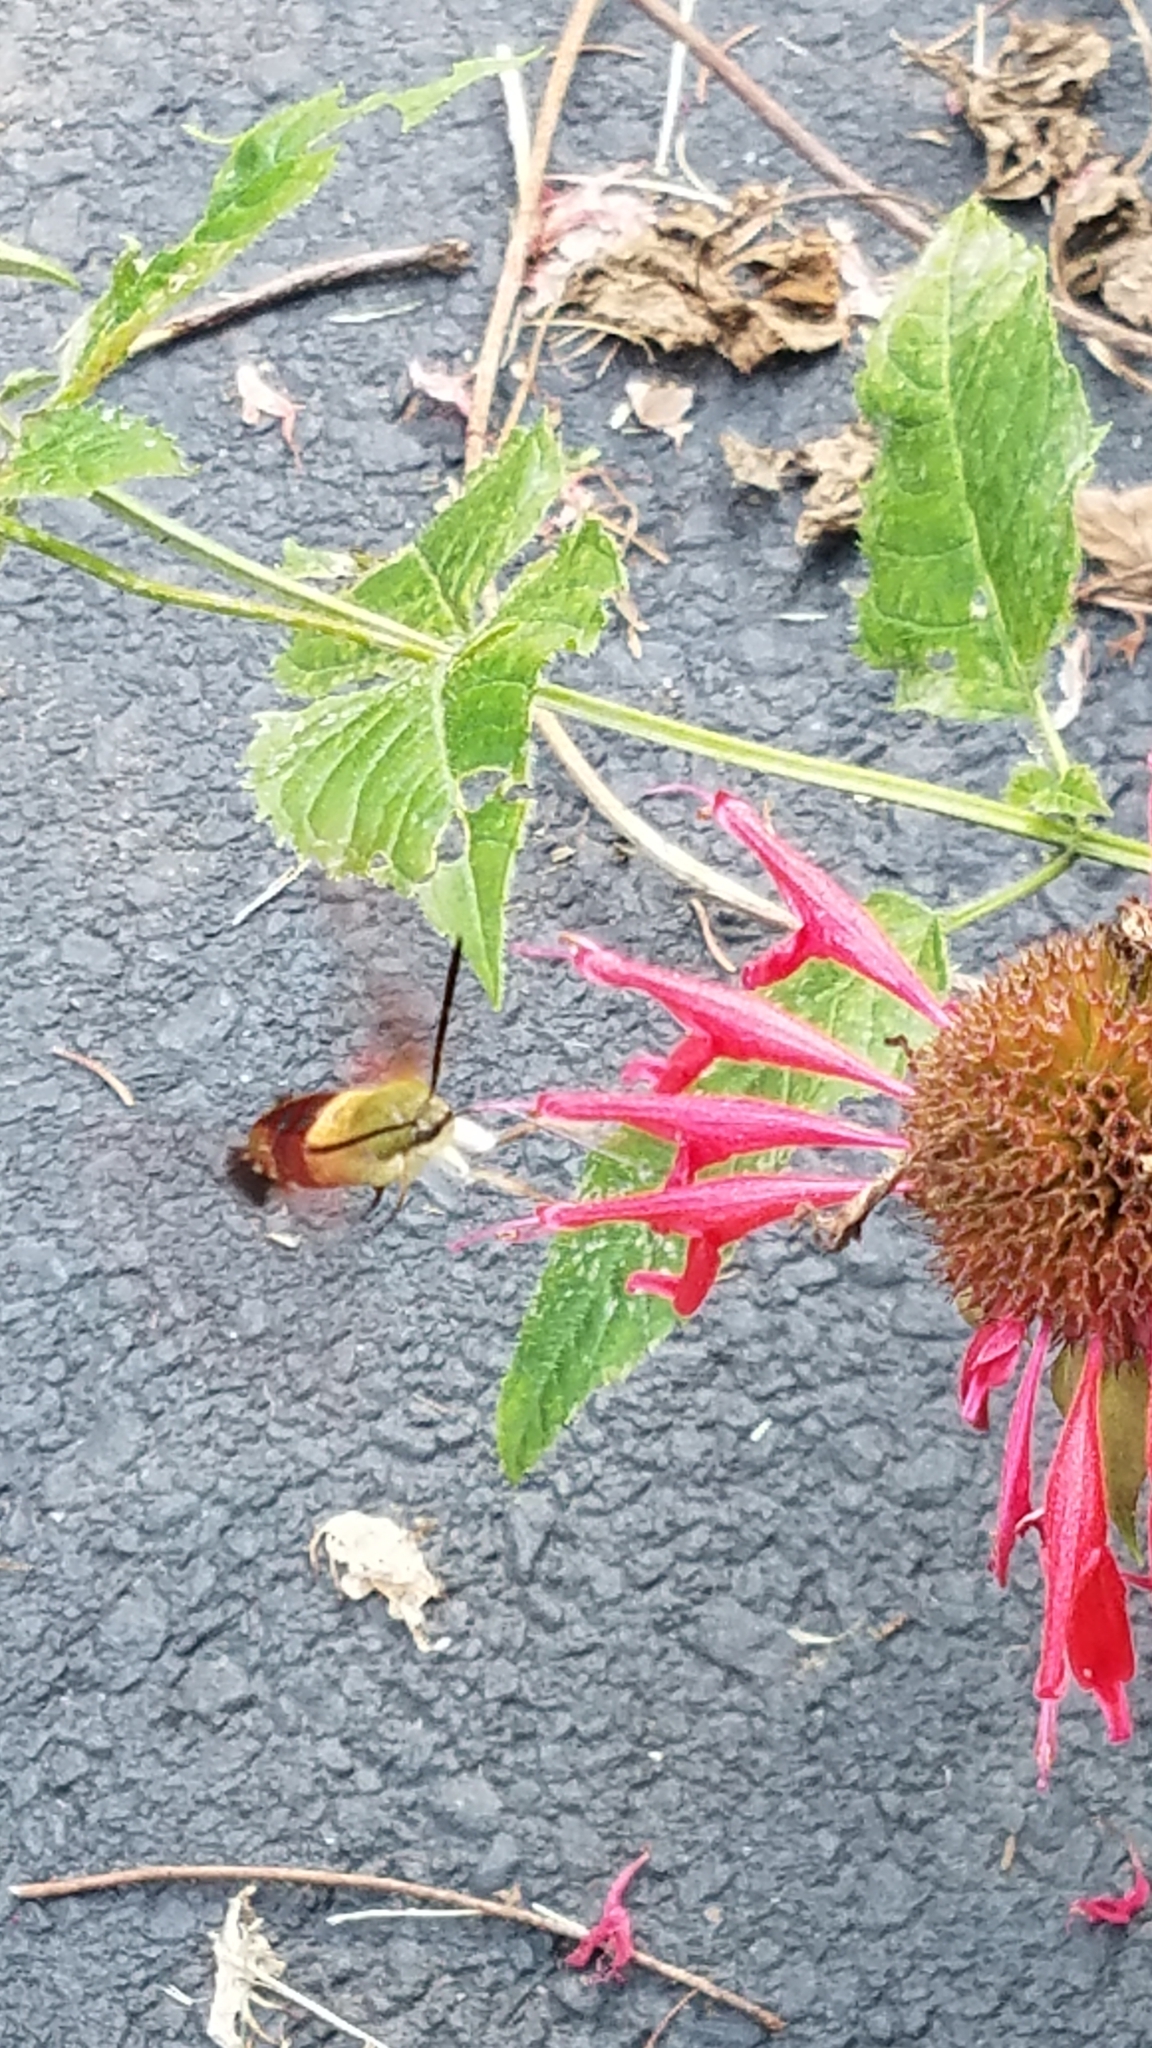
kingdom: Animalia
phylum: Arthropoda
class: Insecta
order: Lepidoptera
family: Sphingidae
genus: Hemaris
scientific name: Hemaris thysbe
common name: Common clear-wing
